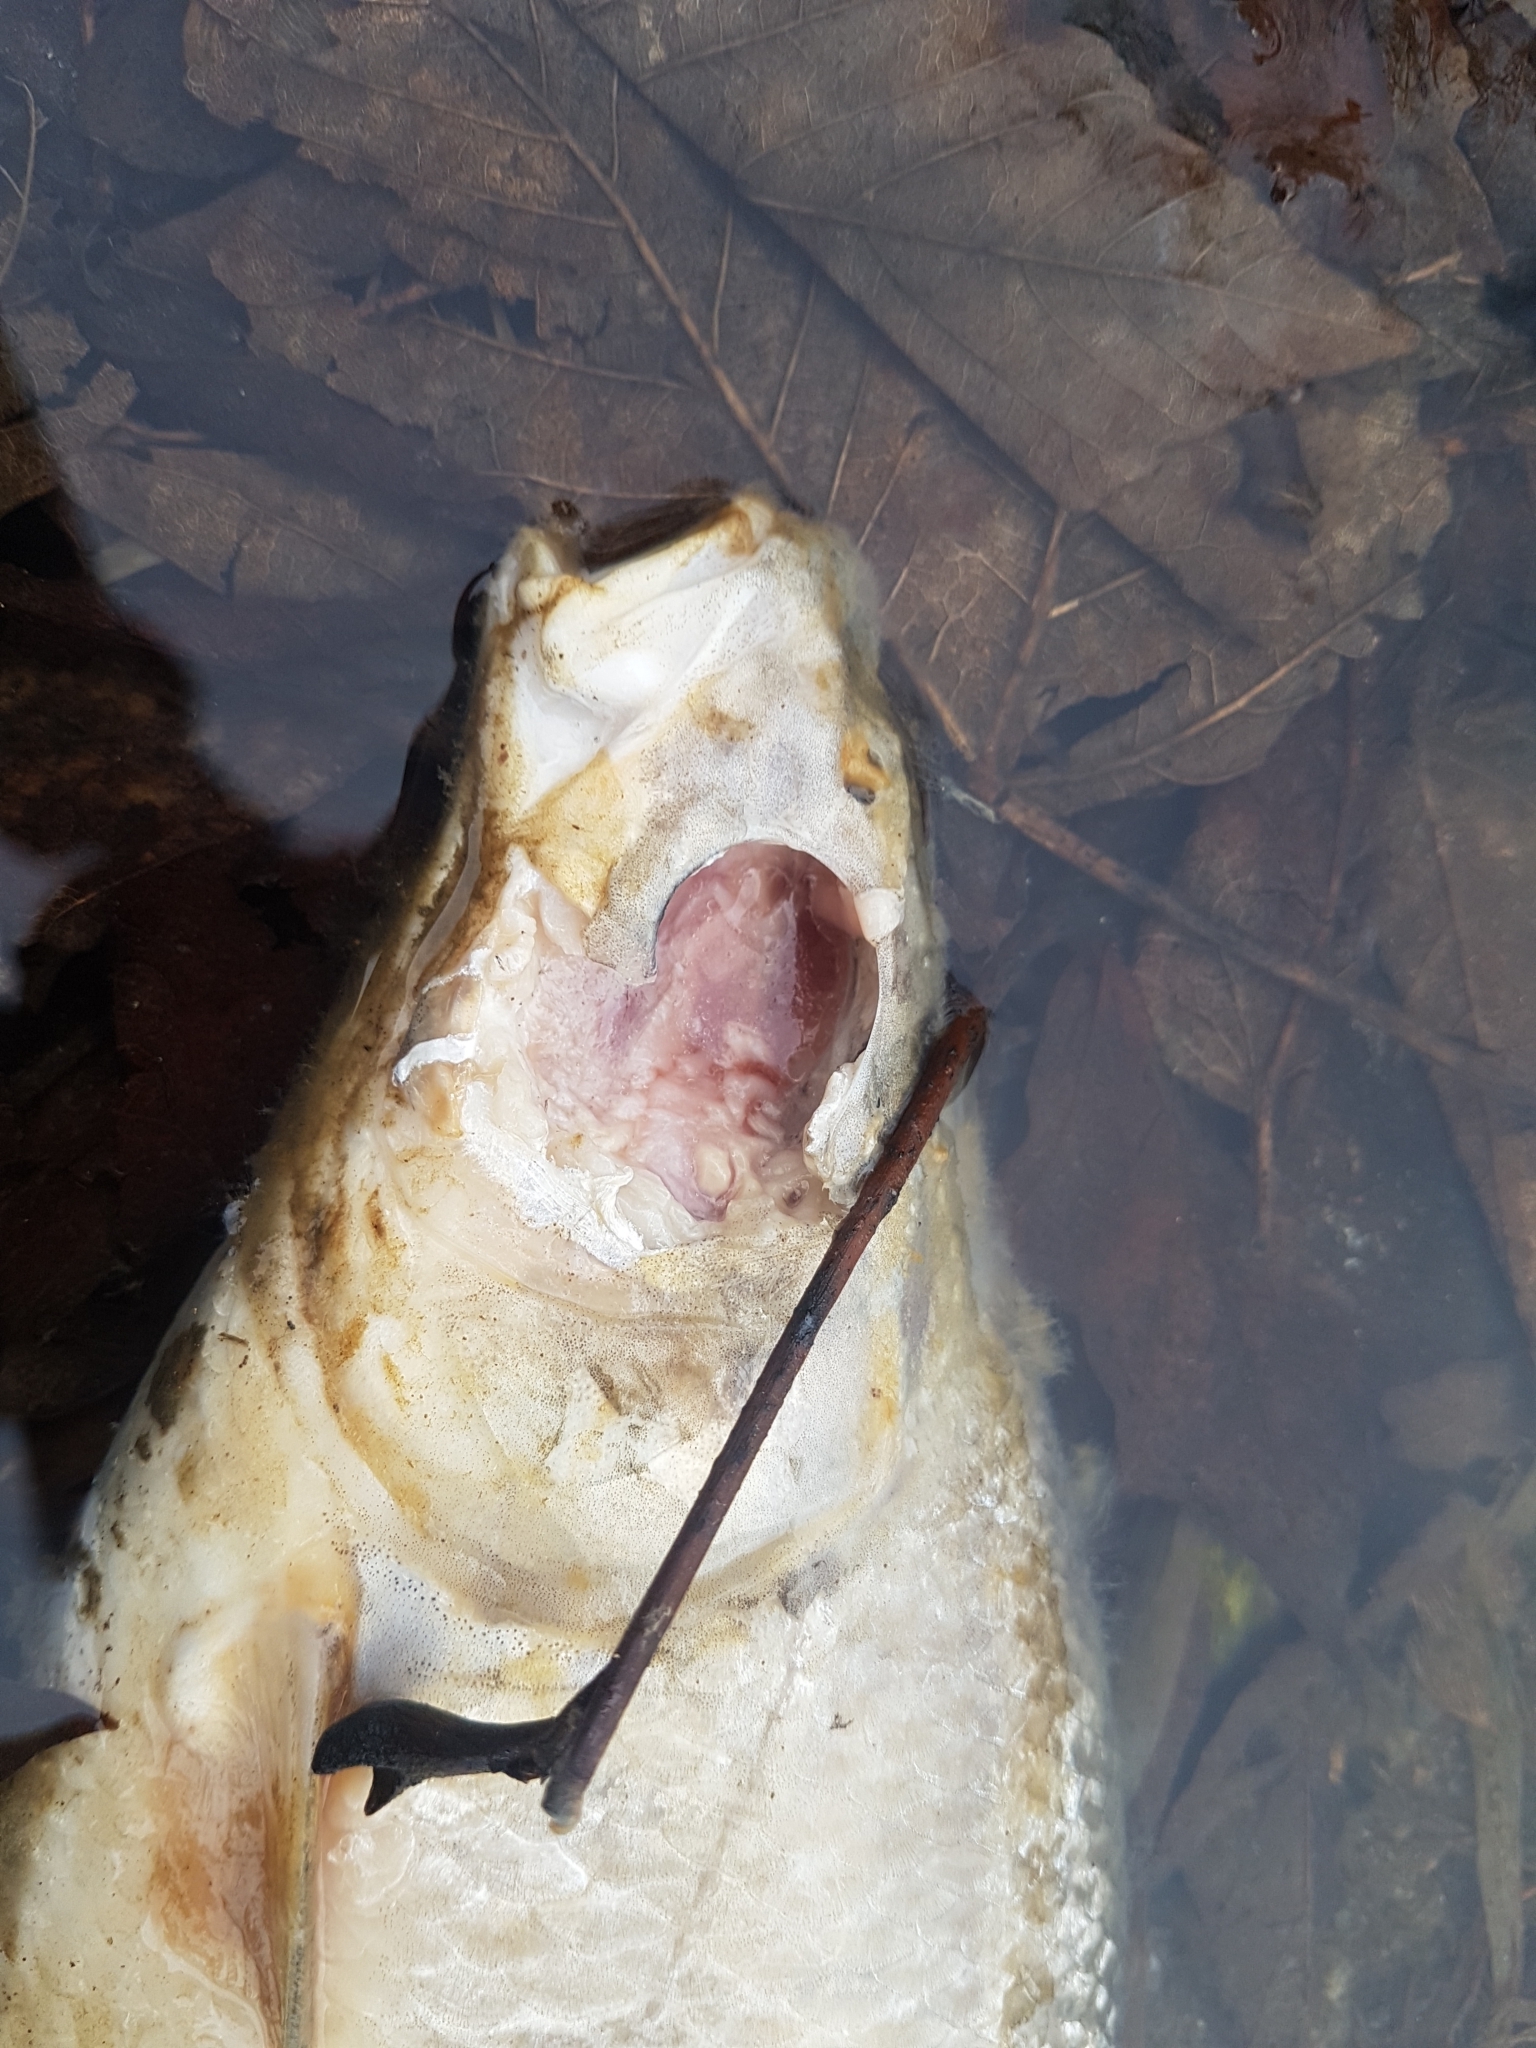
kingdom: Animalia
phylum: Chordata
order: Cypriniformes
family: Cyprinidae
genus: Vimba
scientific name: Vimba vimba
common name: Vimba
